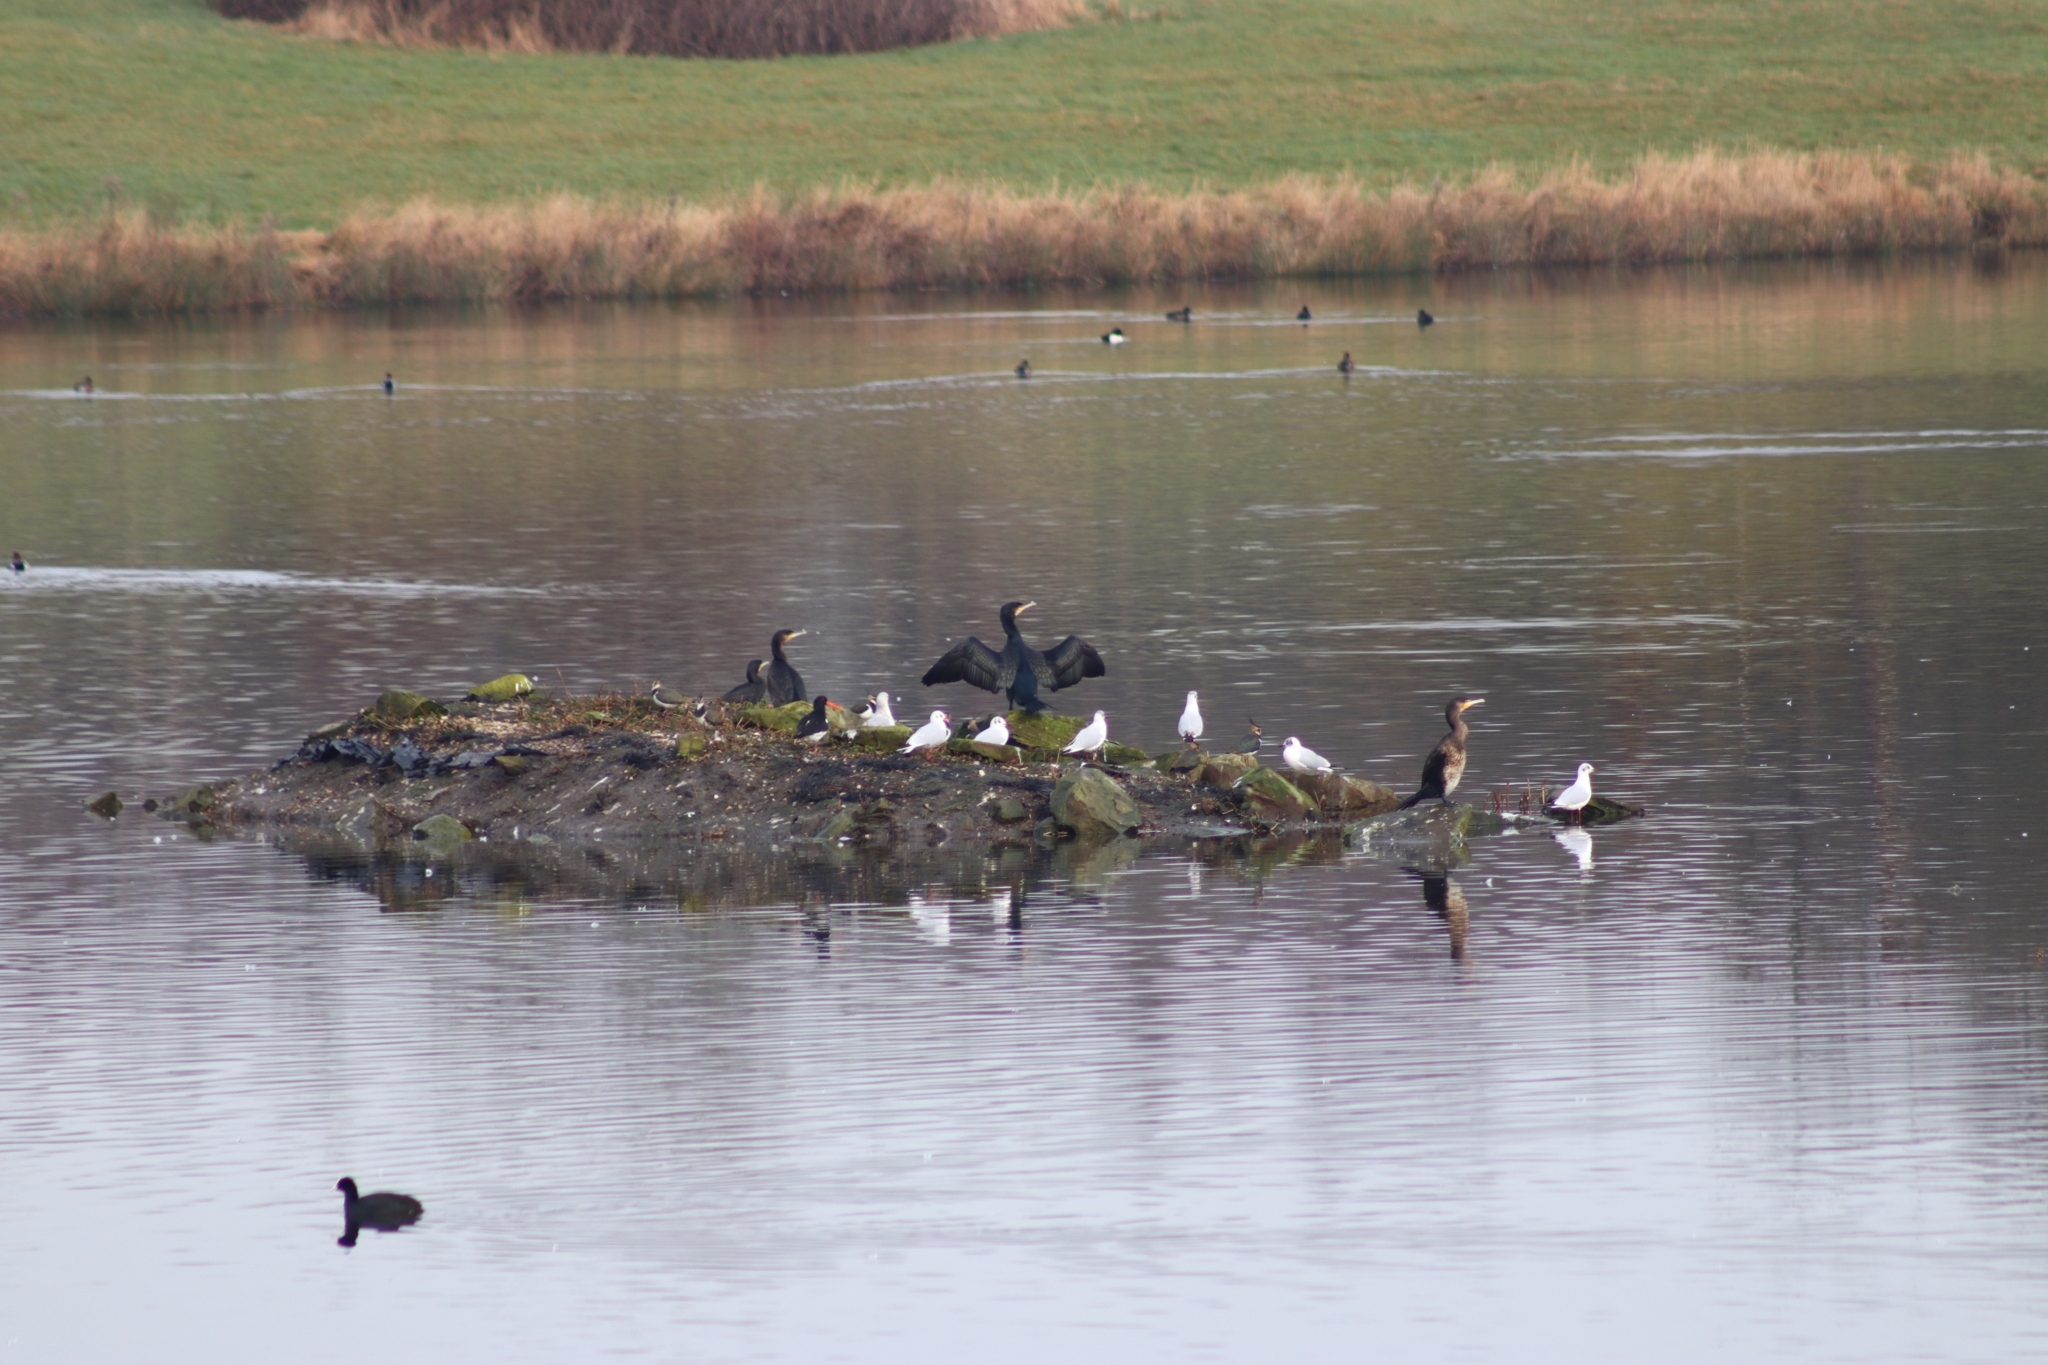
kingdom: Animalia
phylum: Chordata
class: Aves
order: Suliformes
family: Phalacrocoracidae
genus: Phalacrocorax
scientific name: Phalacrocorax carbo
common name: Great cormorant
